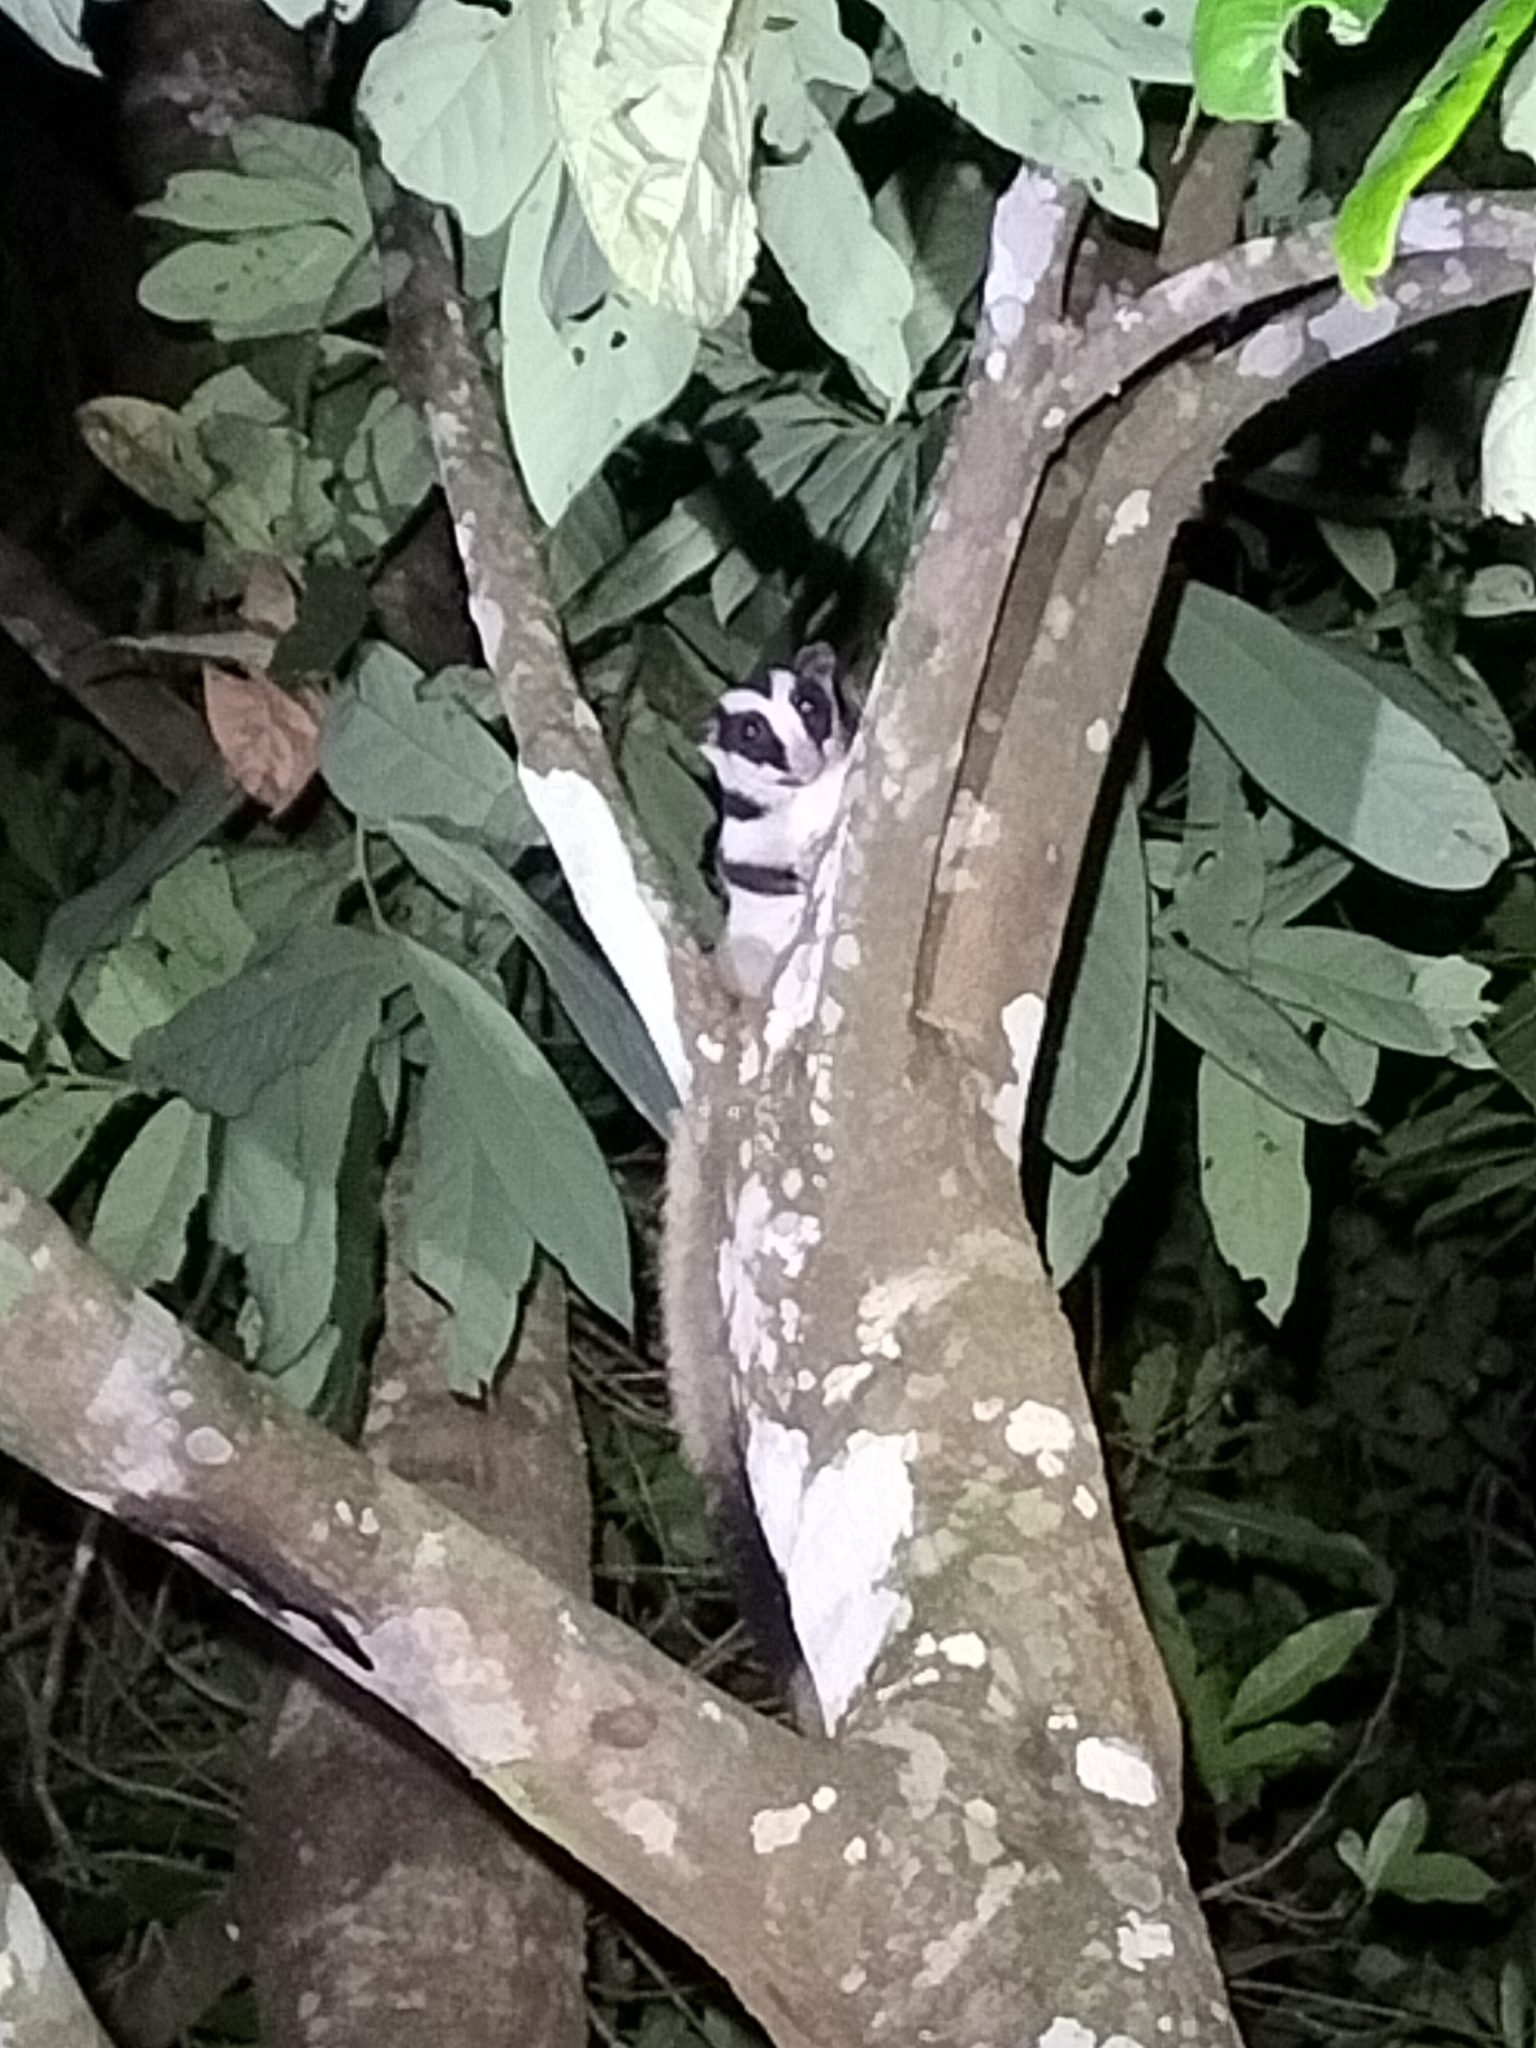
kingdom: Animalia
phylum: Chordata
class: Mammalia
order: Diprotodontia
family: Petauridae
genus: Dactylopsila
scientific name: Dactylopsila trivirgata
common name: Striped possum
